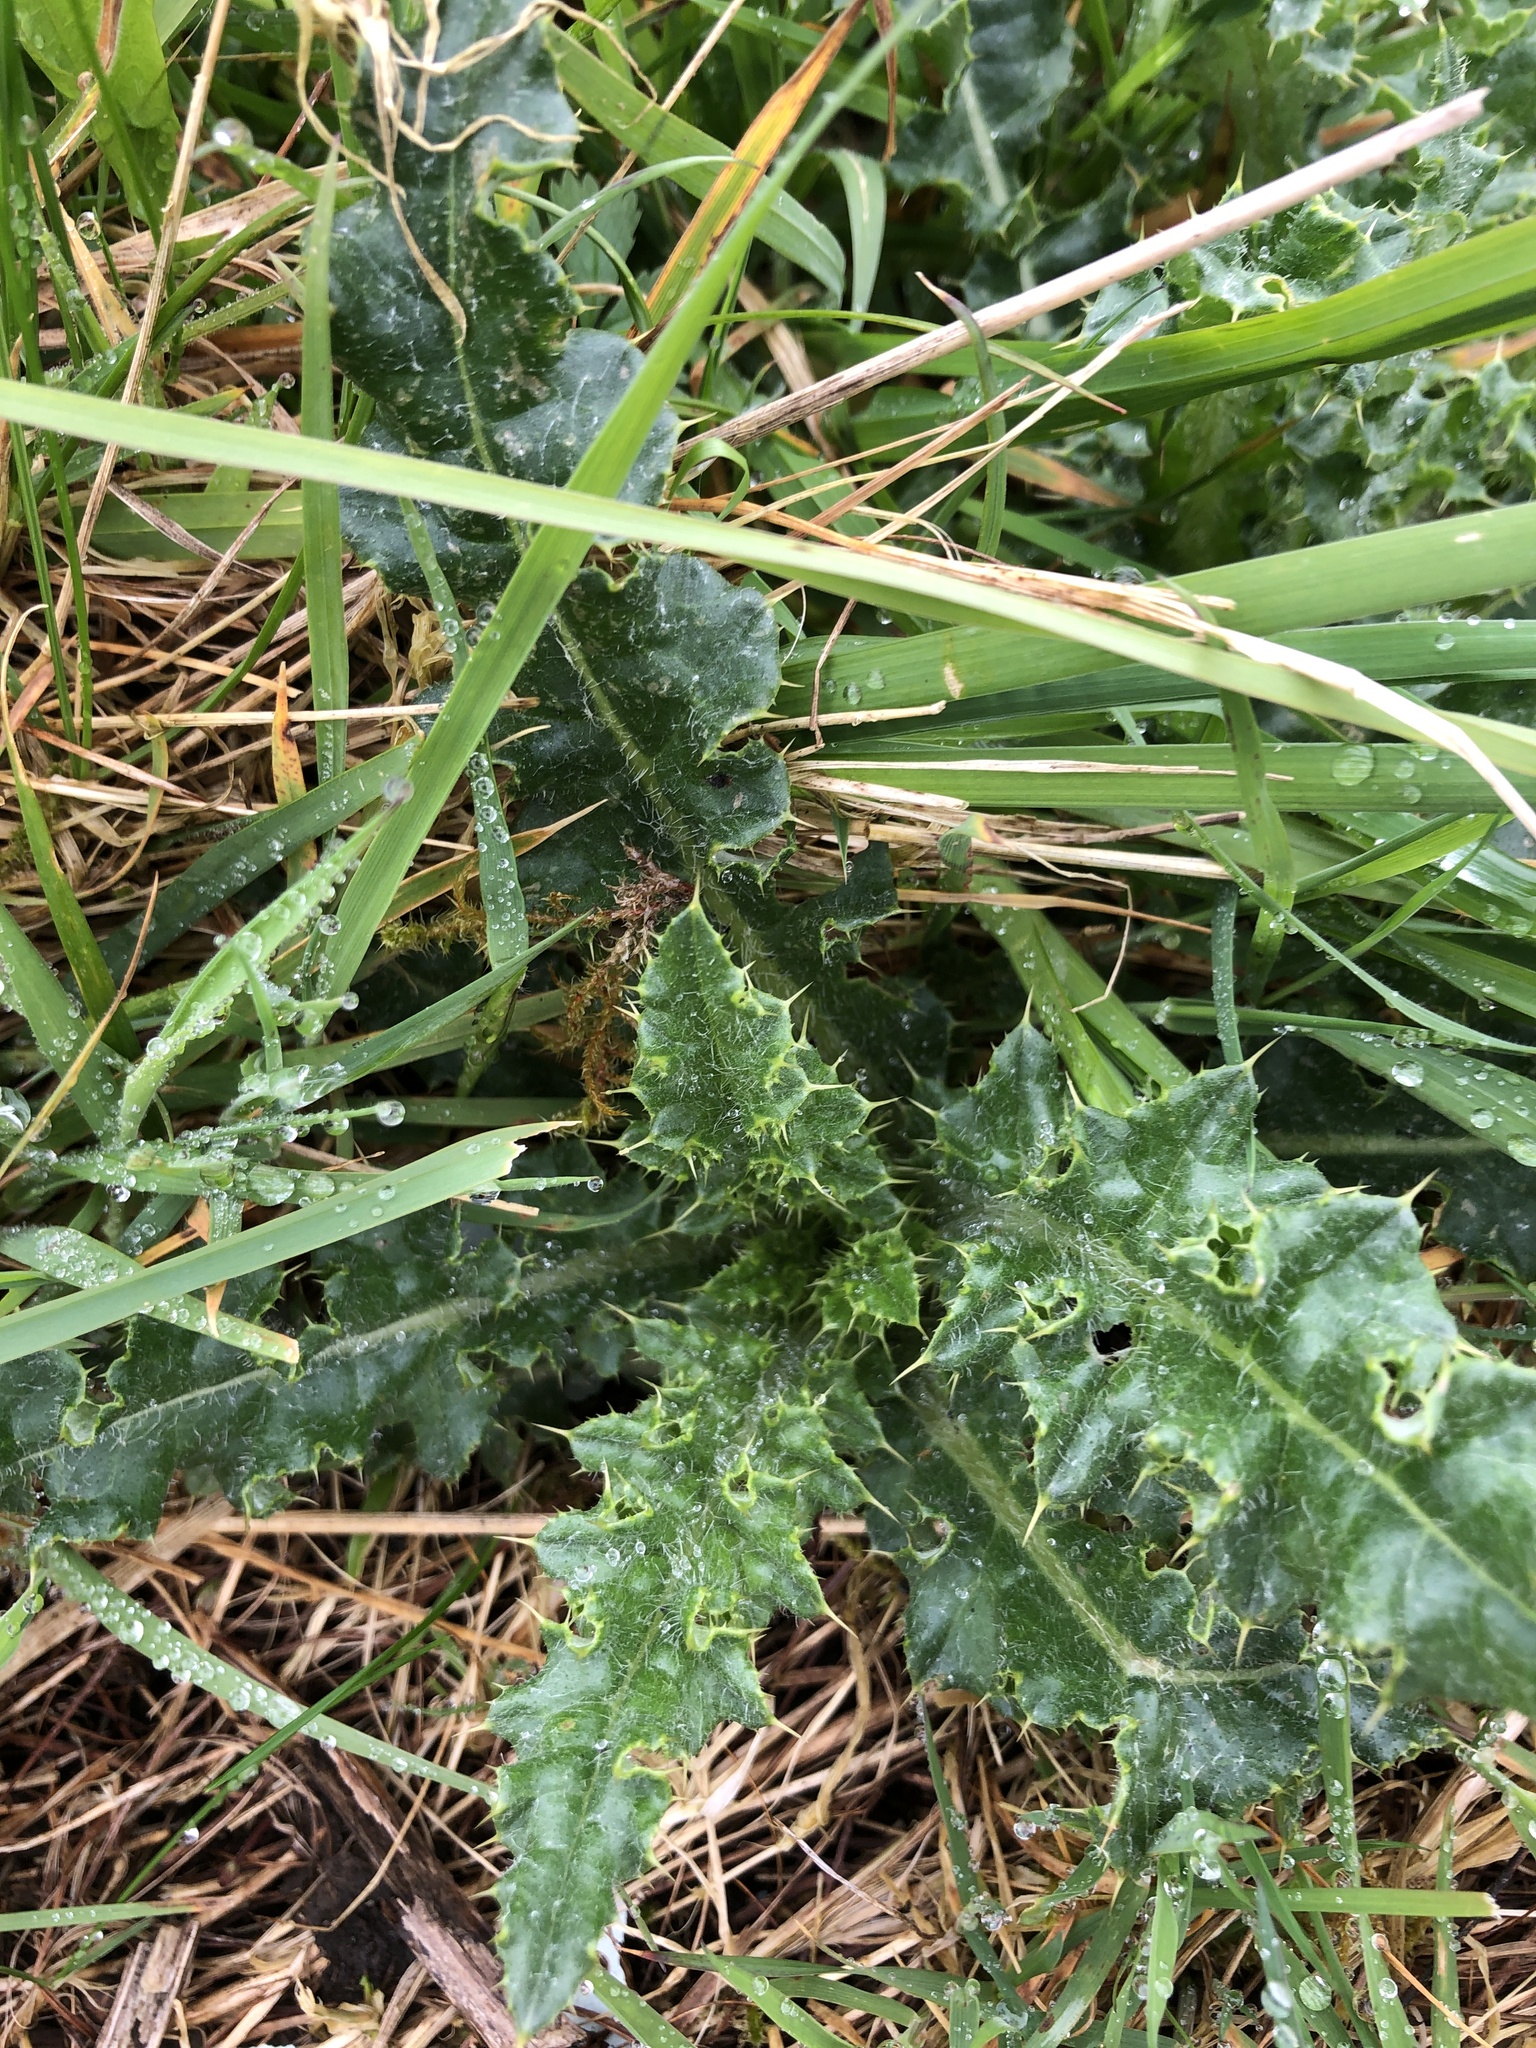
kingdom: Plantae
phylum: Tracheophyta
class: Magnoliopsida
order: Asterales
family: Asteraceae
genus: Cirsium
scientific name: Cirsium arvense
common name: Creeping thistle
